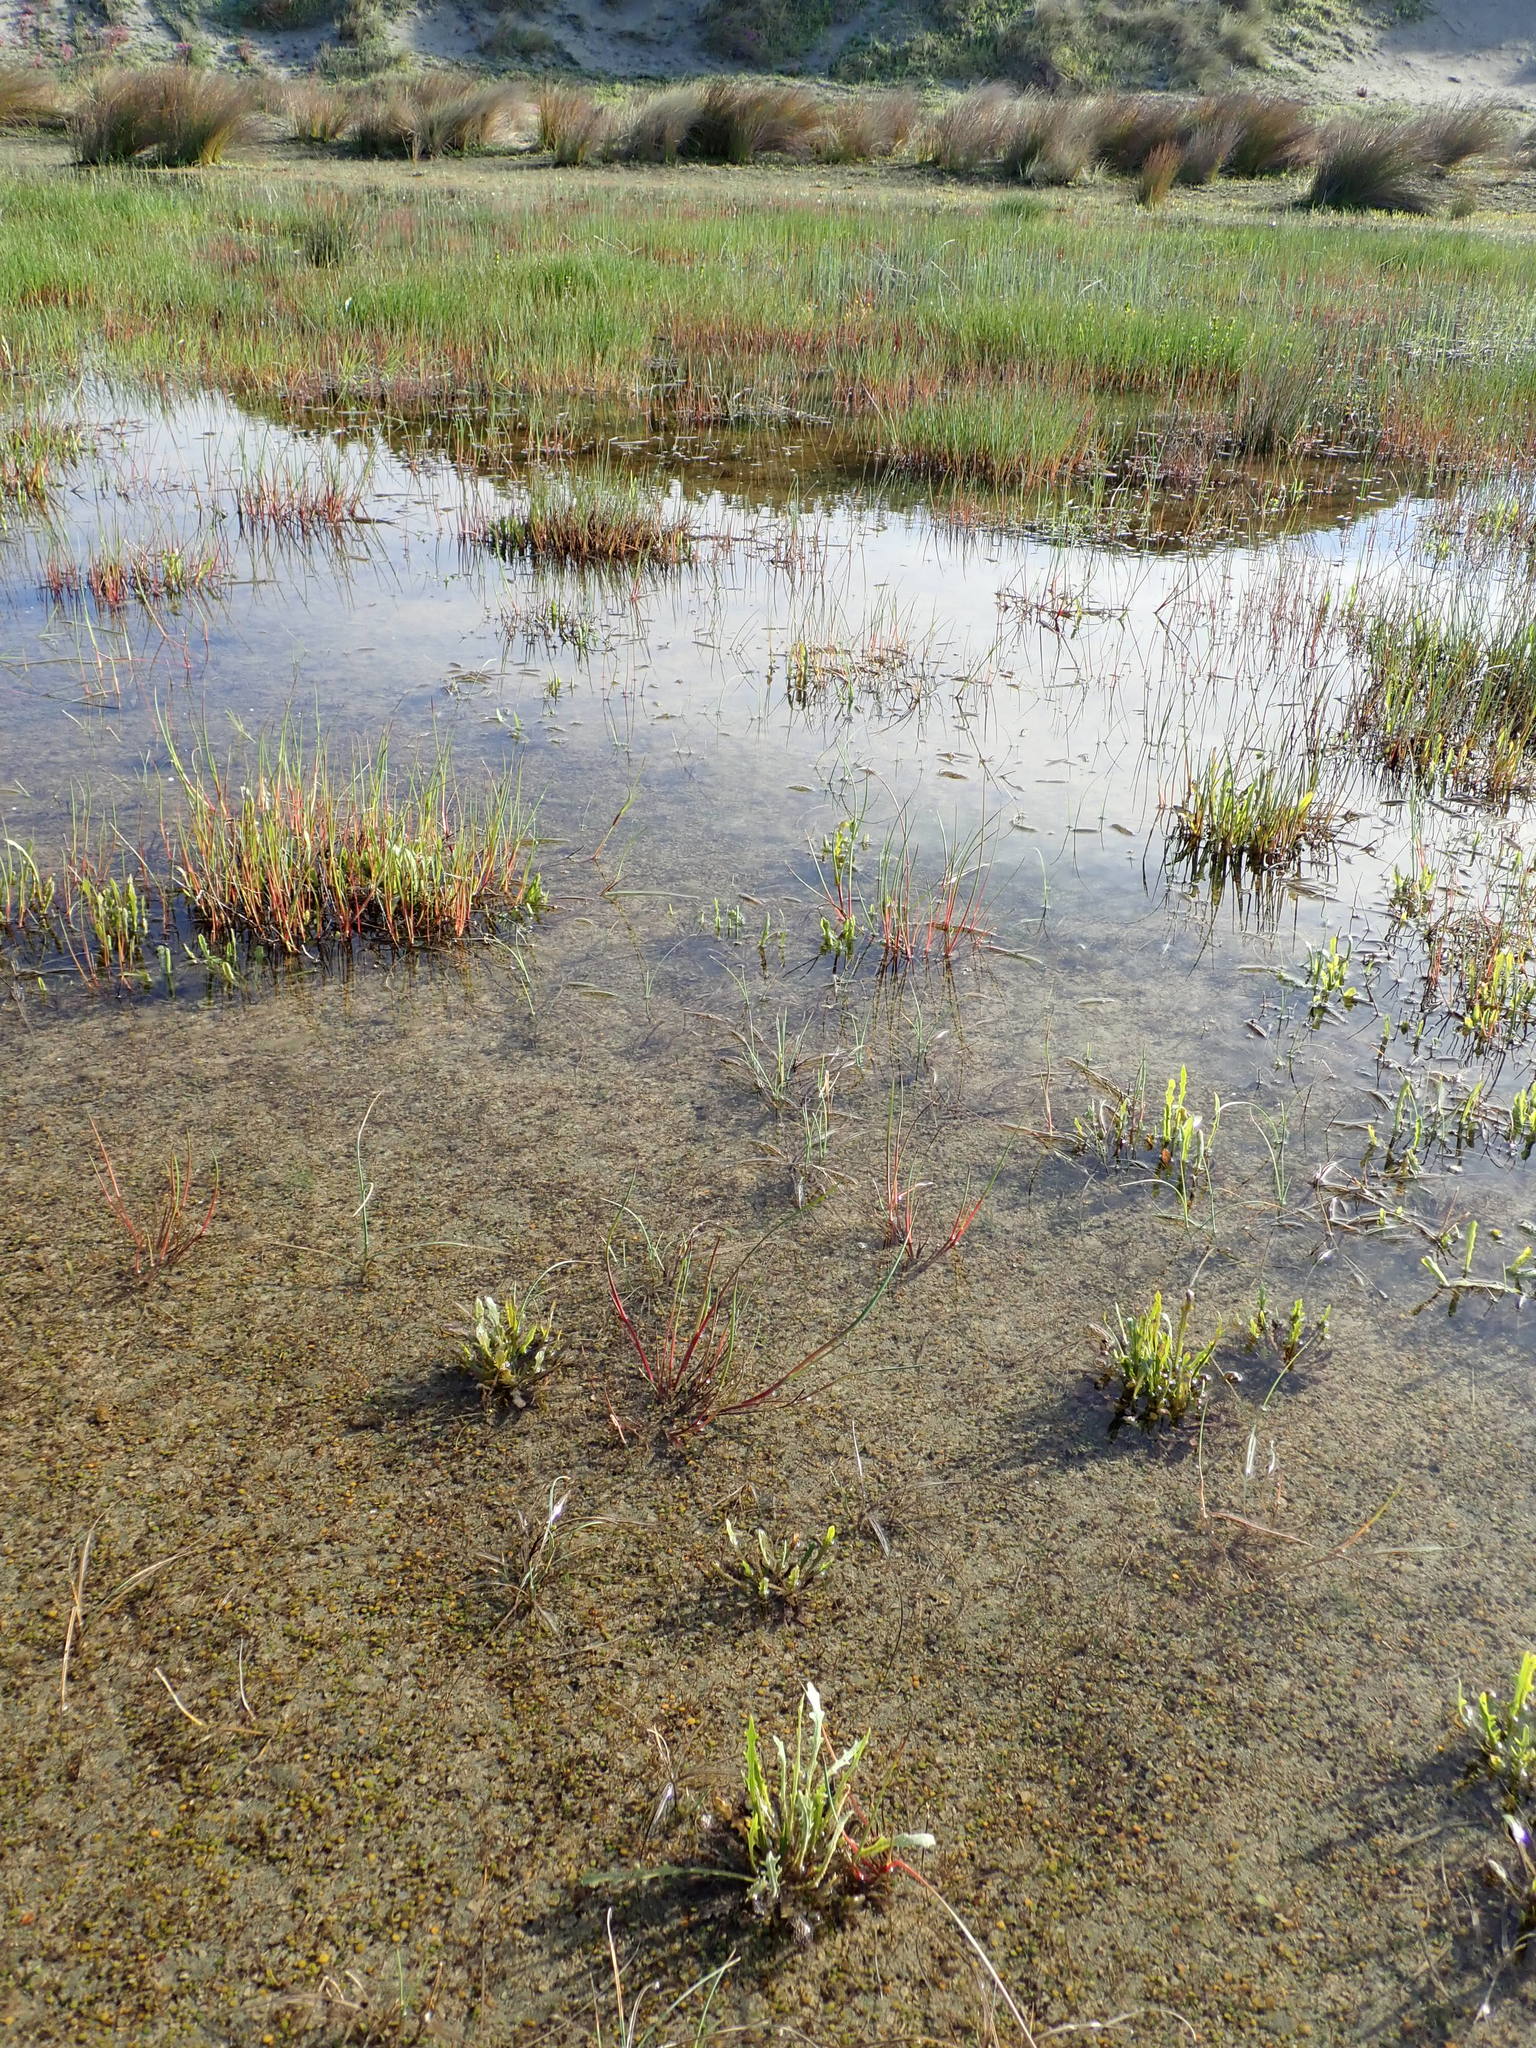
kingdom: Plantae
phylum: Tracheophyta
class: Liliopsida
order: Poales
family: Juncaceae
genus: Juncus
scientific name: Juncus articulatus
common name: Jointed rush
